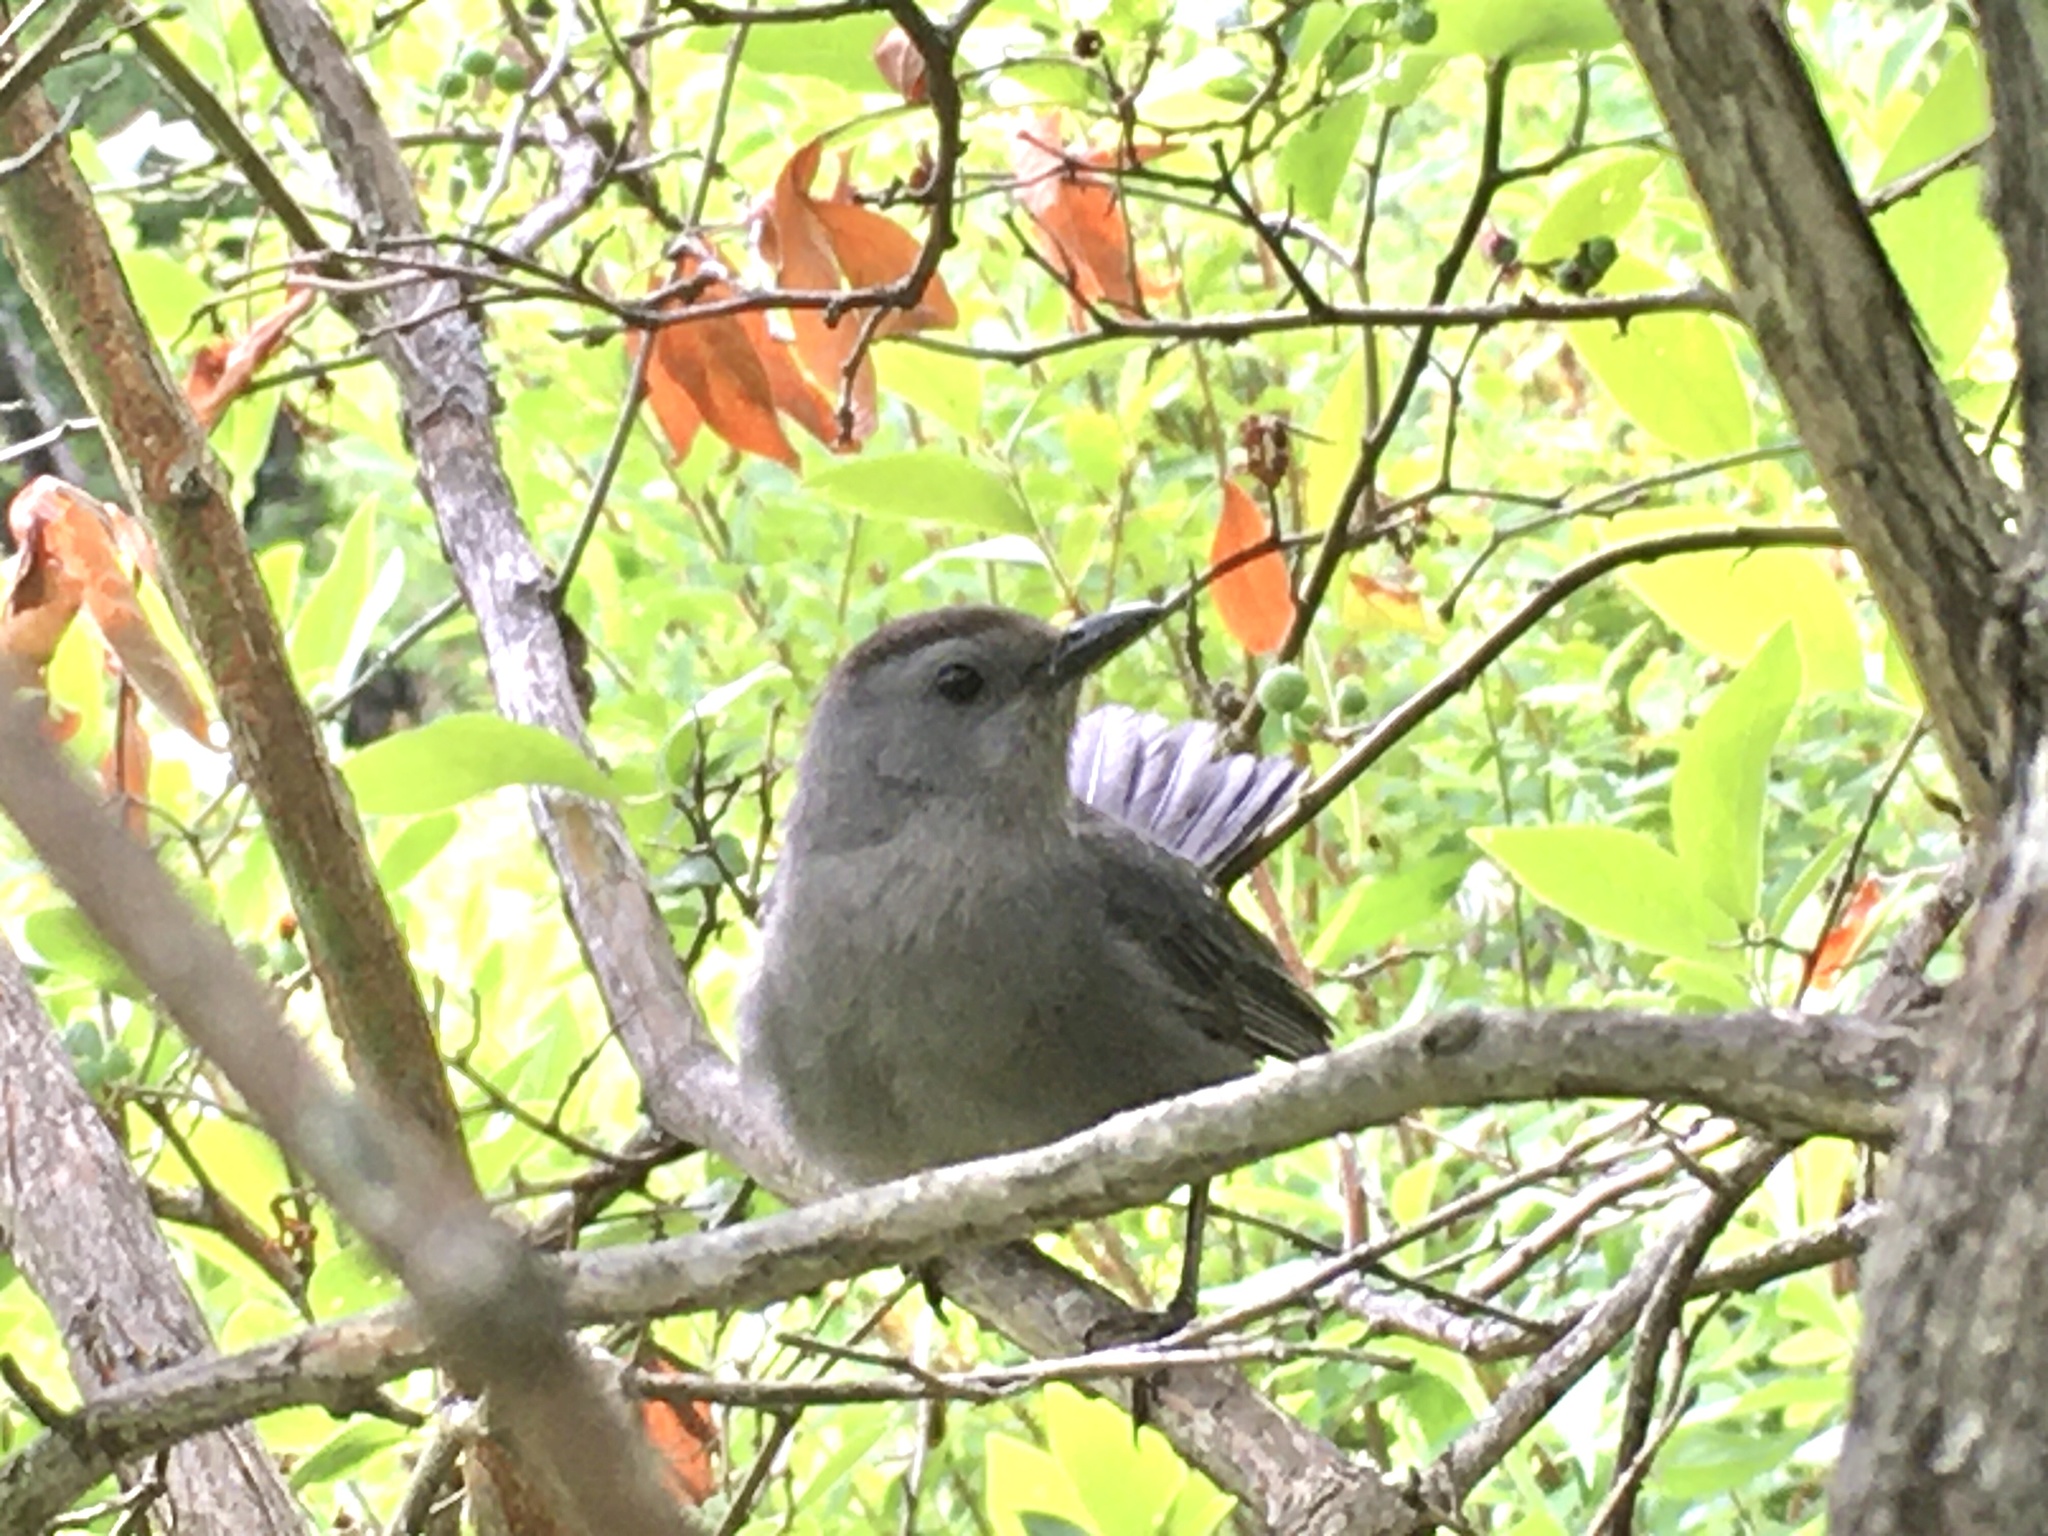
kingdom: Animalia
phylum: Chordata
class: Aves
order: Passeriformes
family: Mimidae
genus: Dumetella
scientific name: Dumetella carolinensis
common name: Gray catbird
